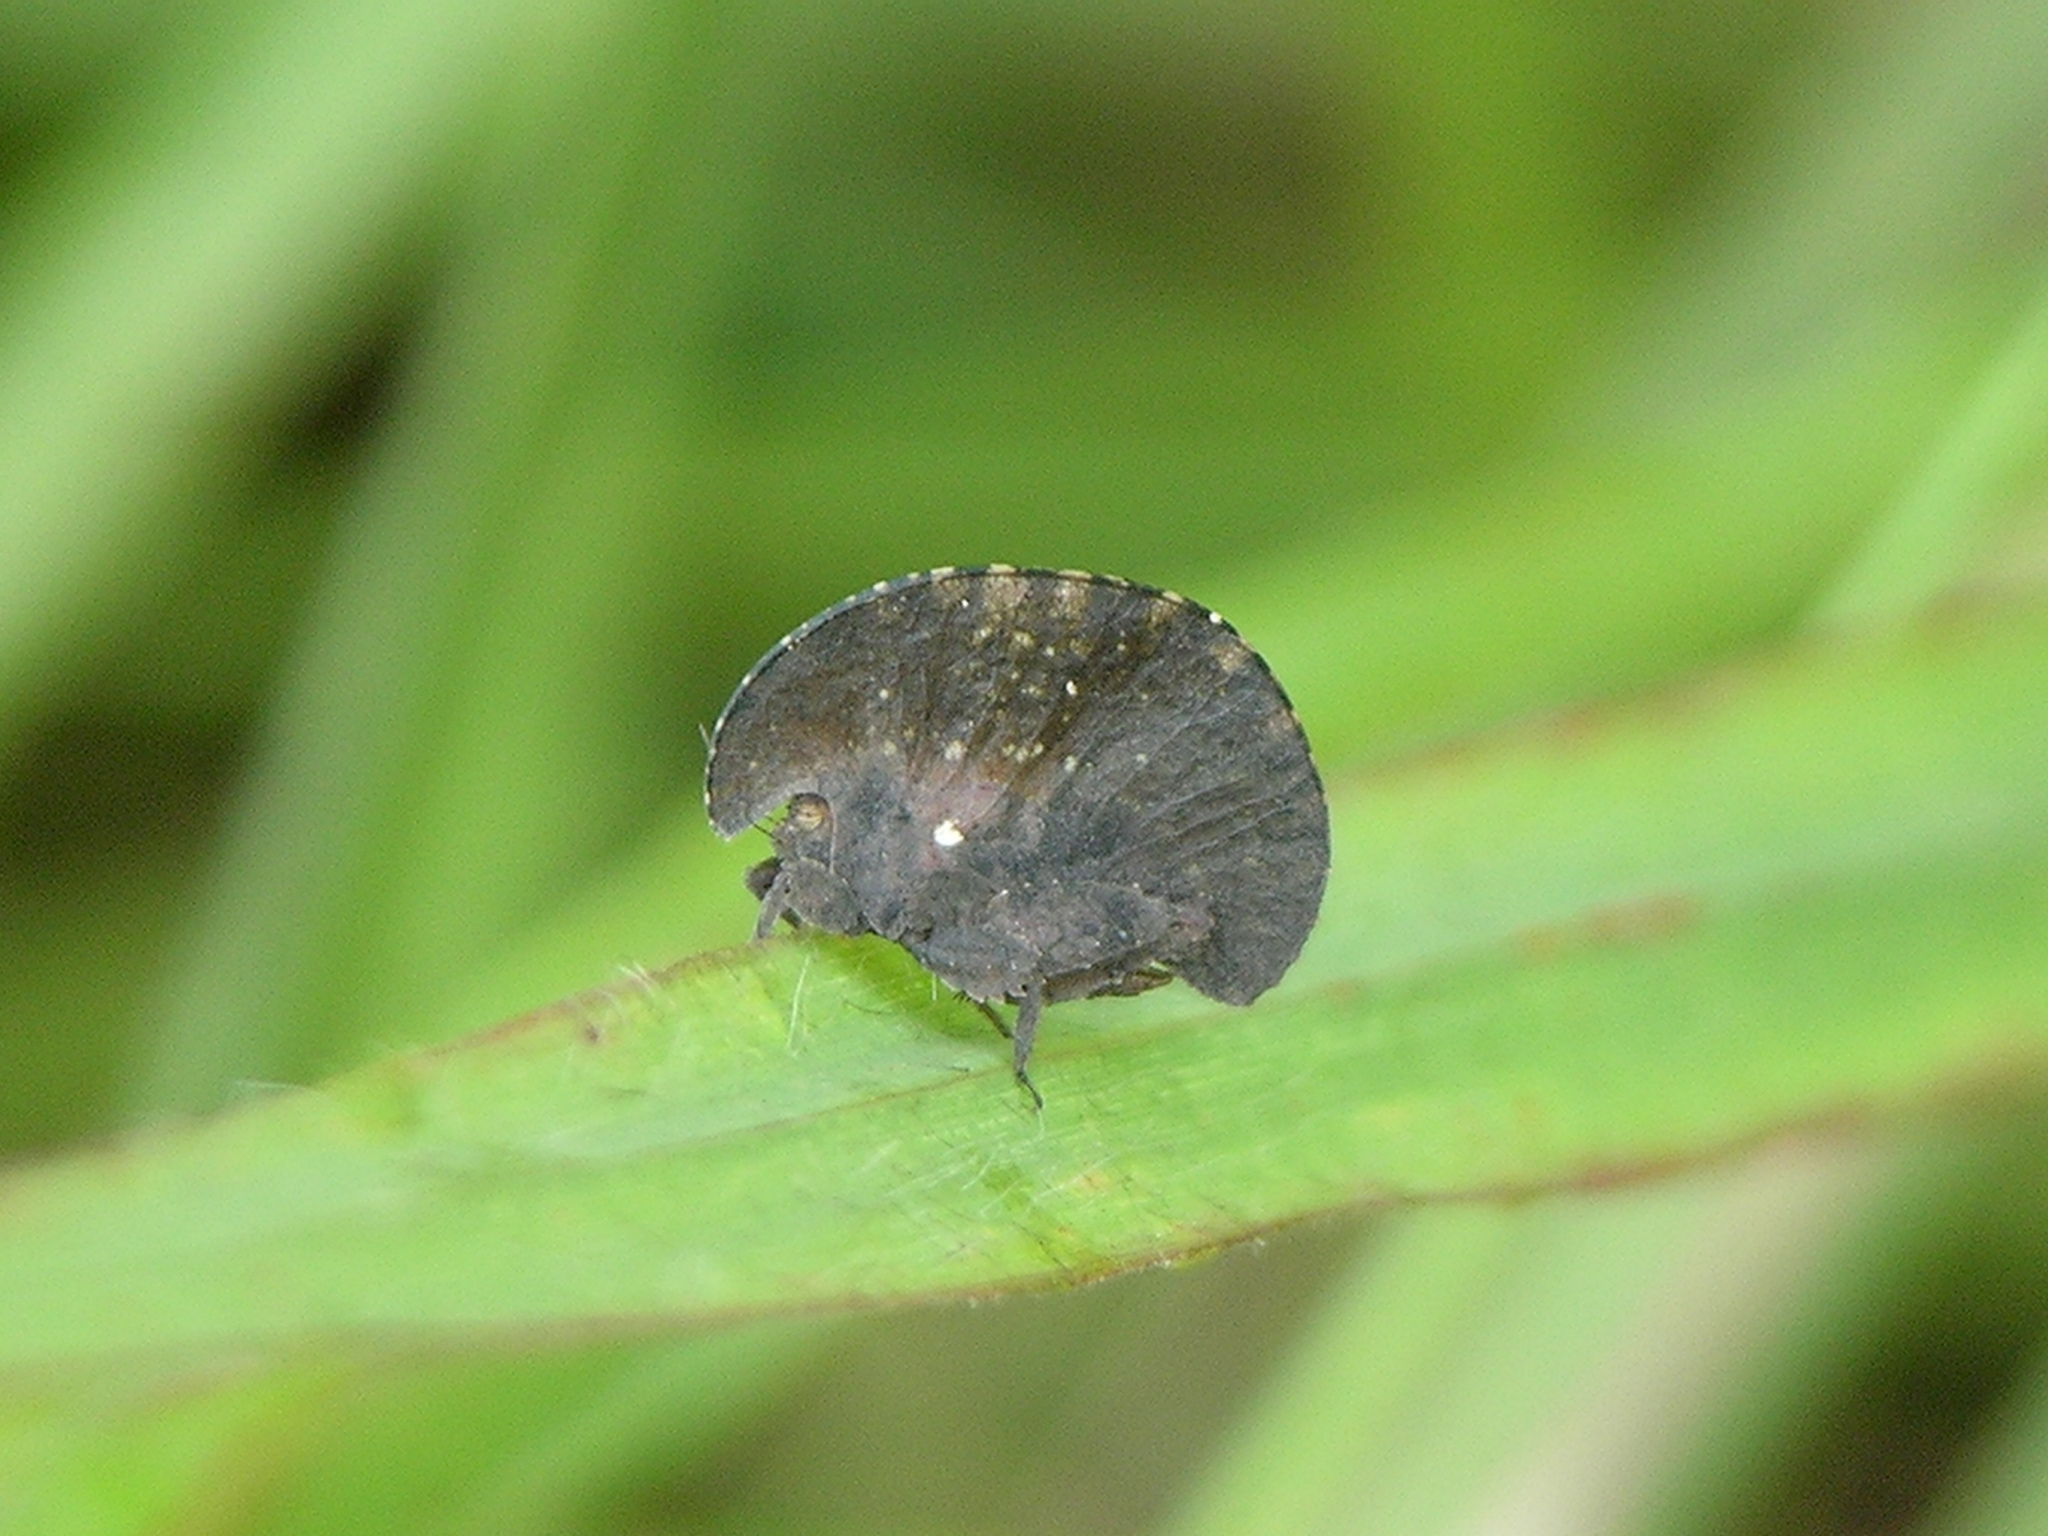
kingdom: Animalia
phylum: Arthropoda
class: Insecta
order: Orthoptera
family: Tetrigidae
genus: Xerophyllum
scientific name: Xerophyllum platycorys
